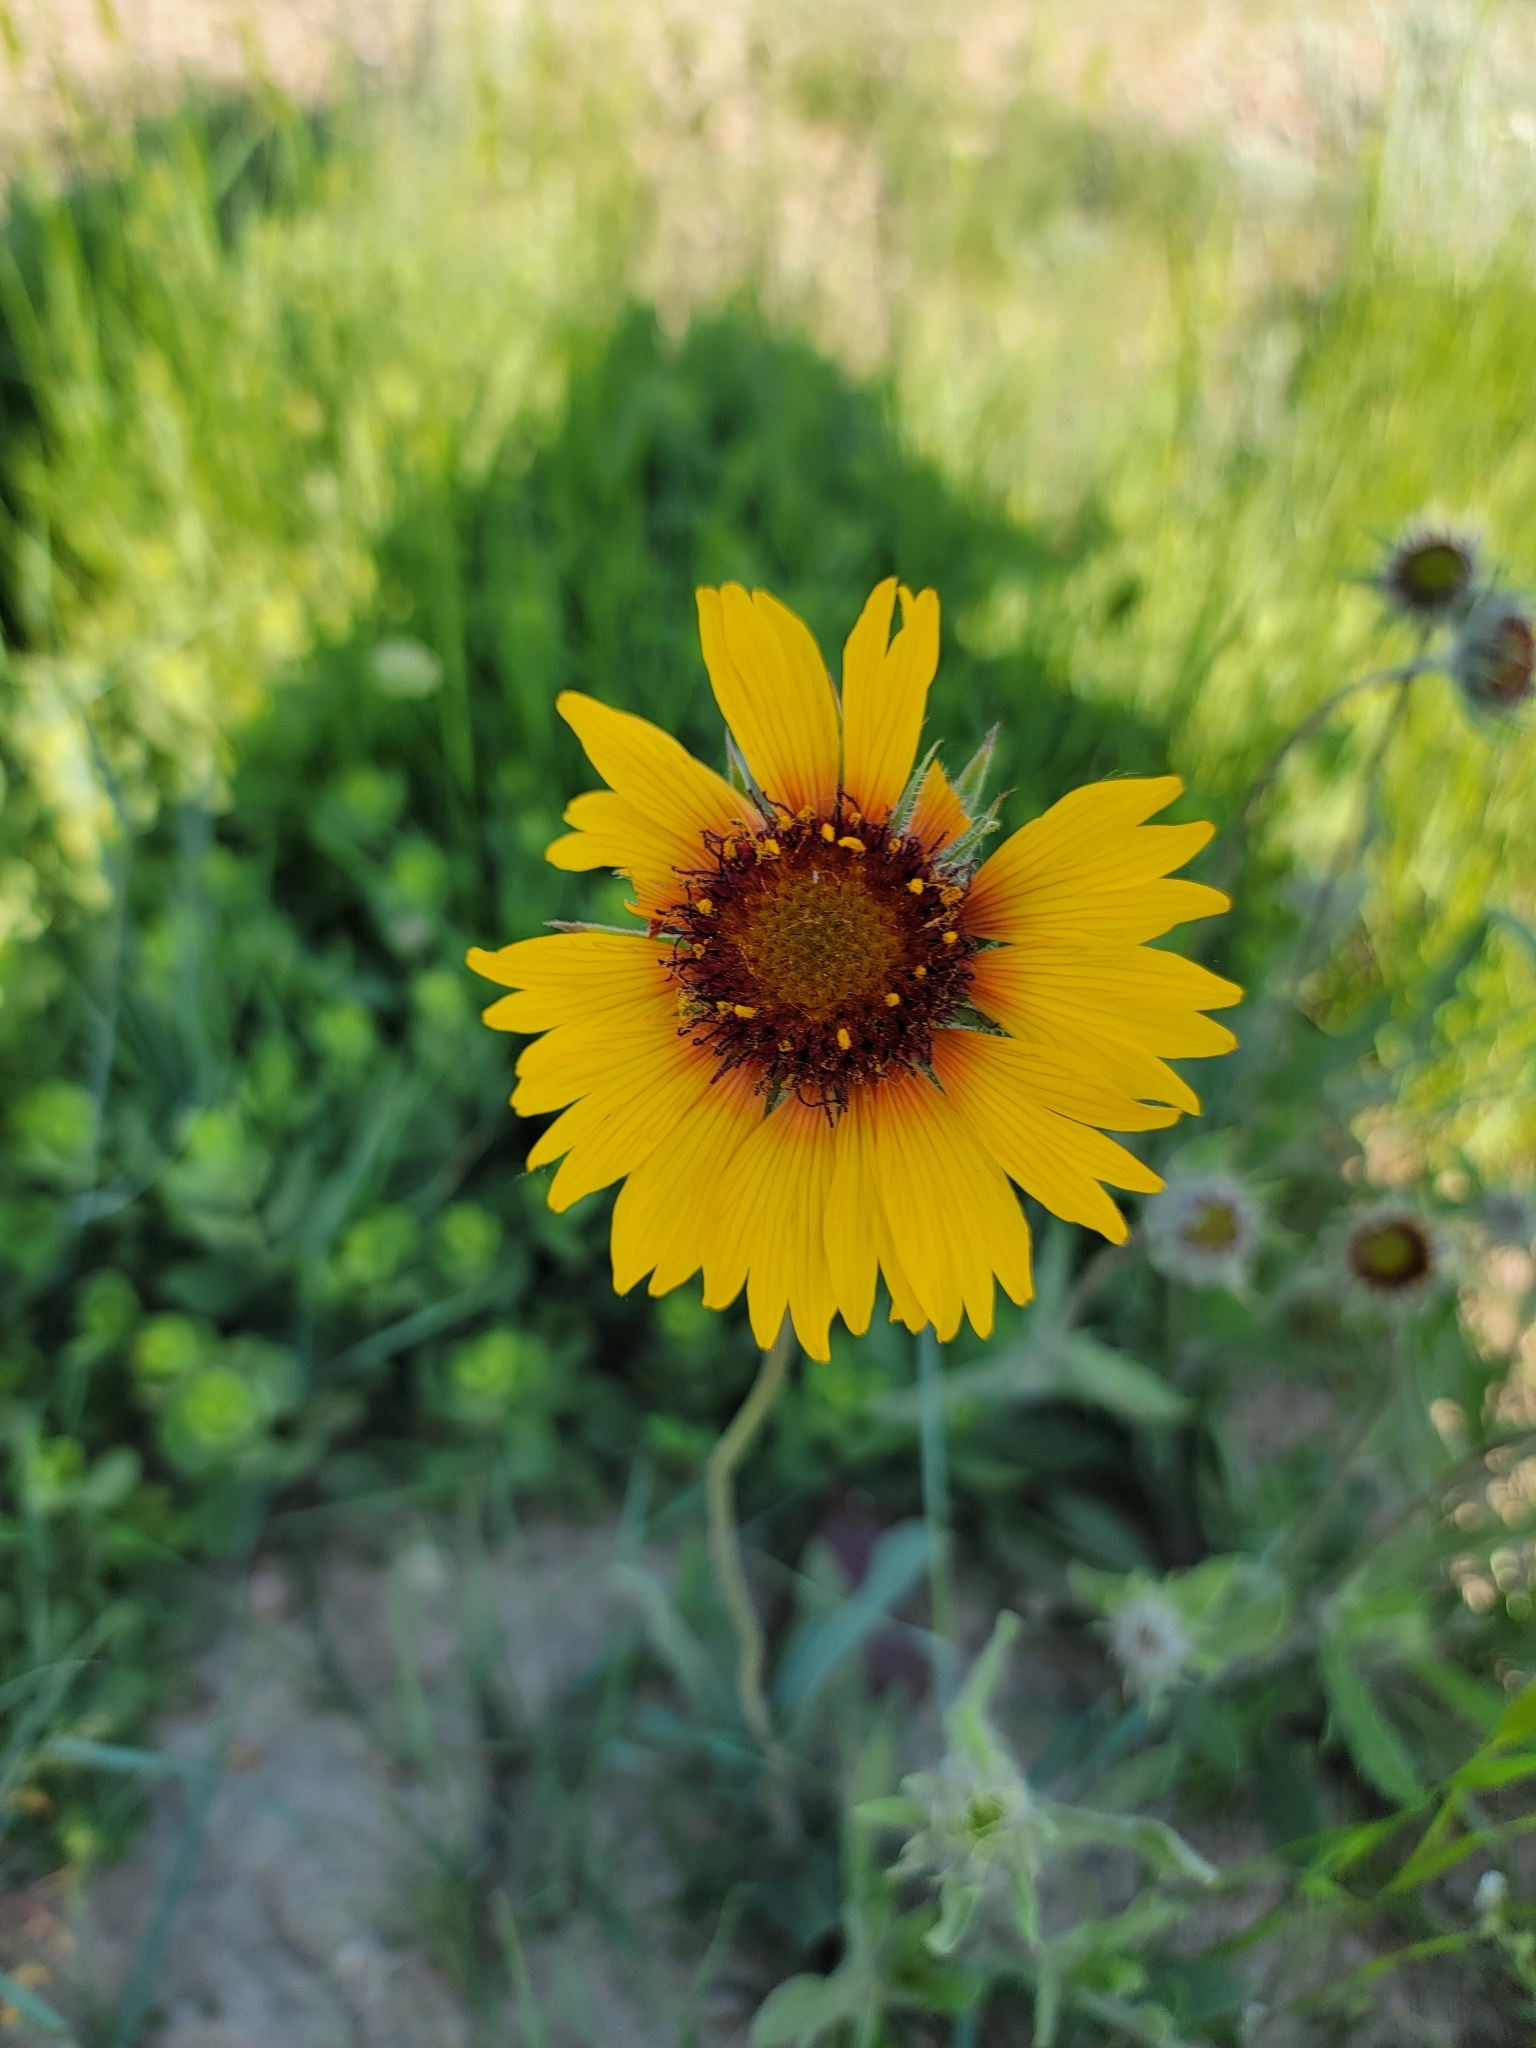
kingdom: Plantae
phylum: Tracheophyta
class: Magnoliopsida
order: Asterales
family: Asteraceae
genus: Gaillardia
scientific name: Gaillardia aristata
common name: Blanket-flower
